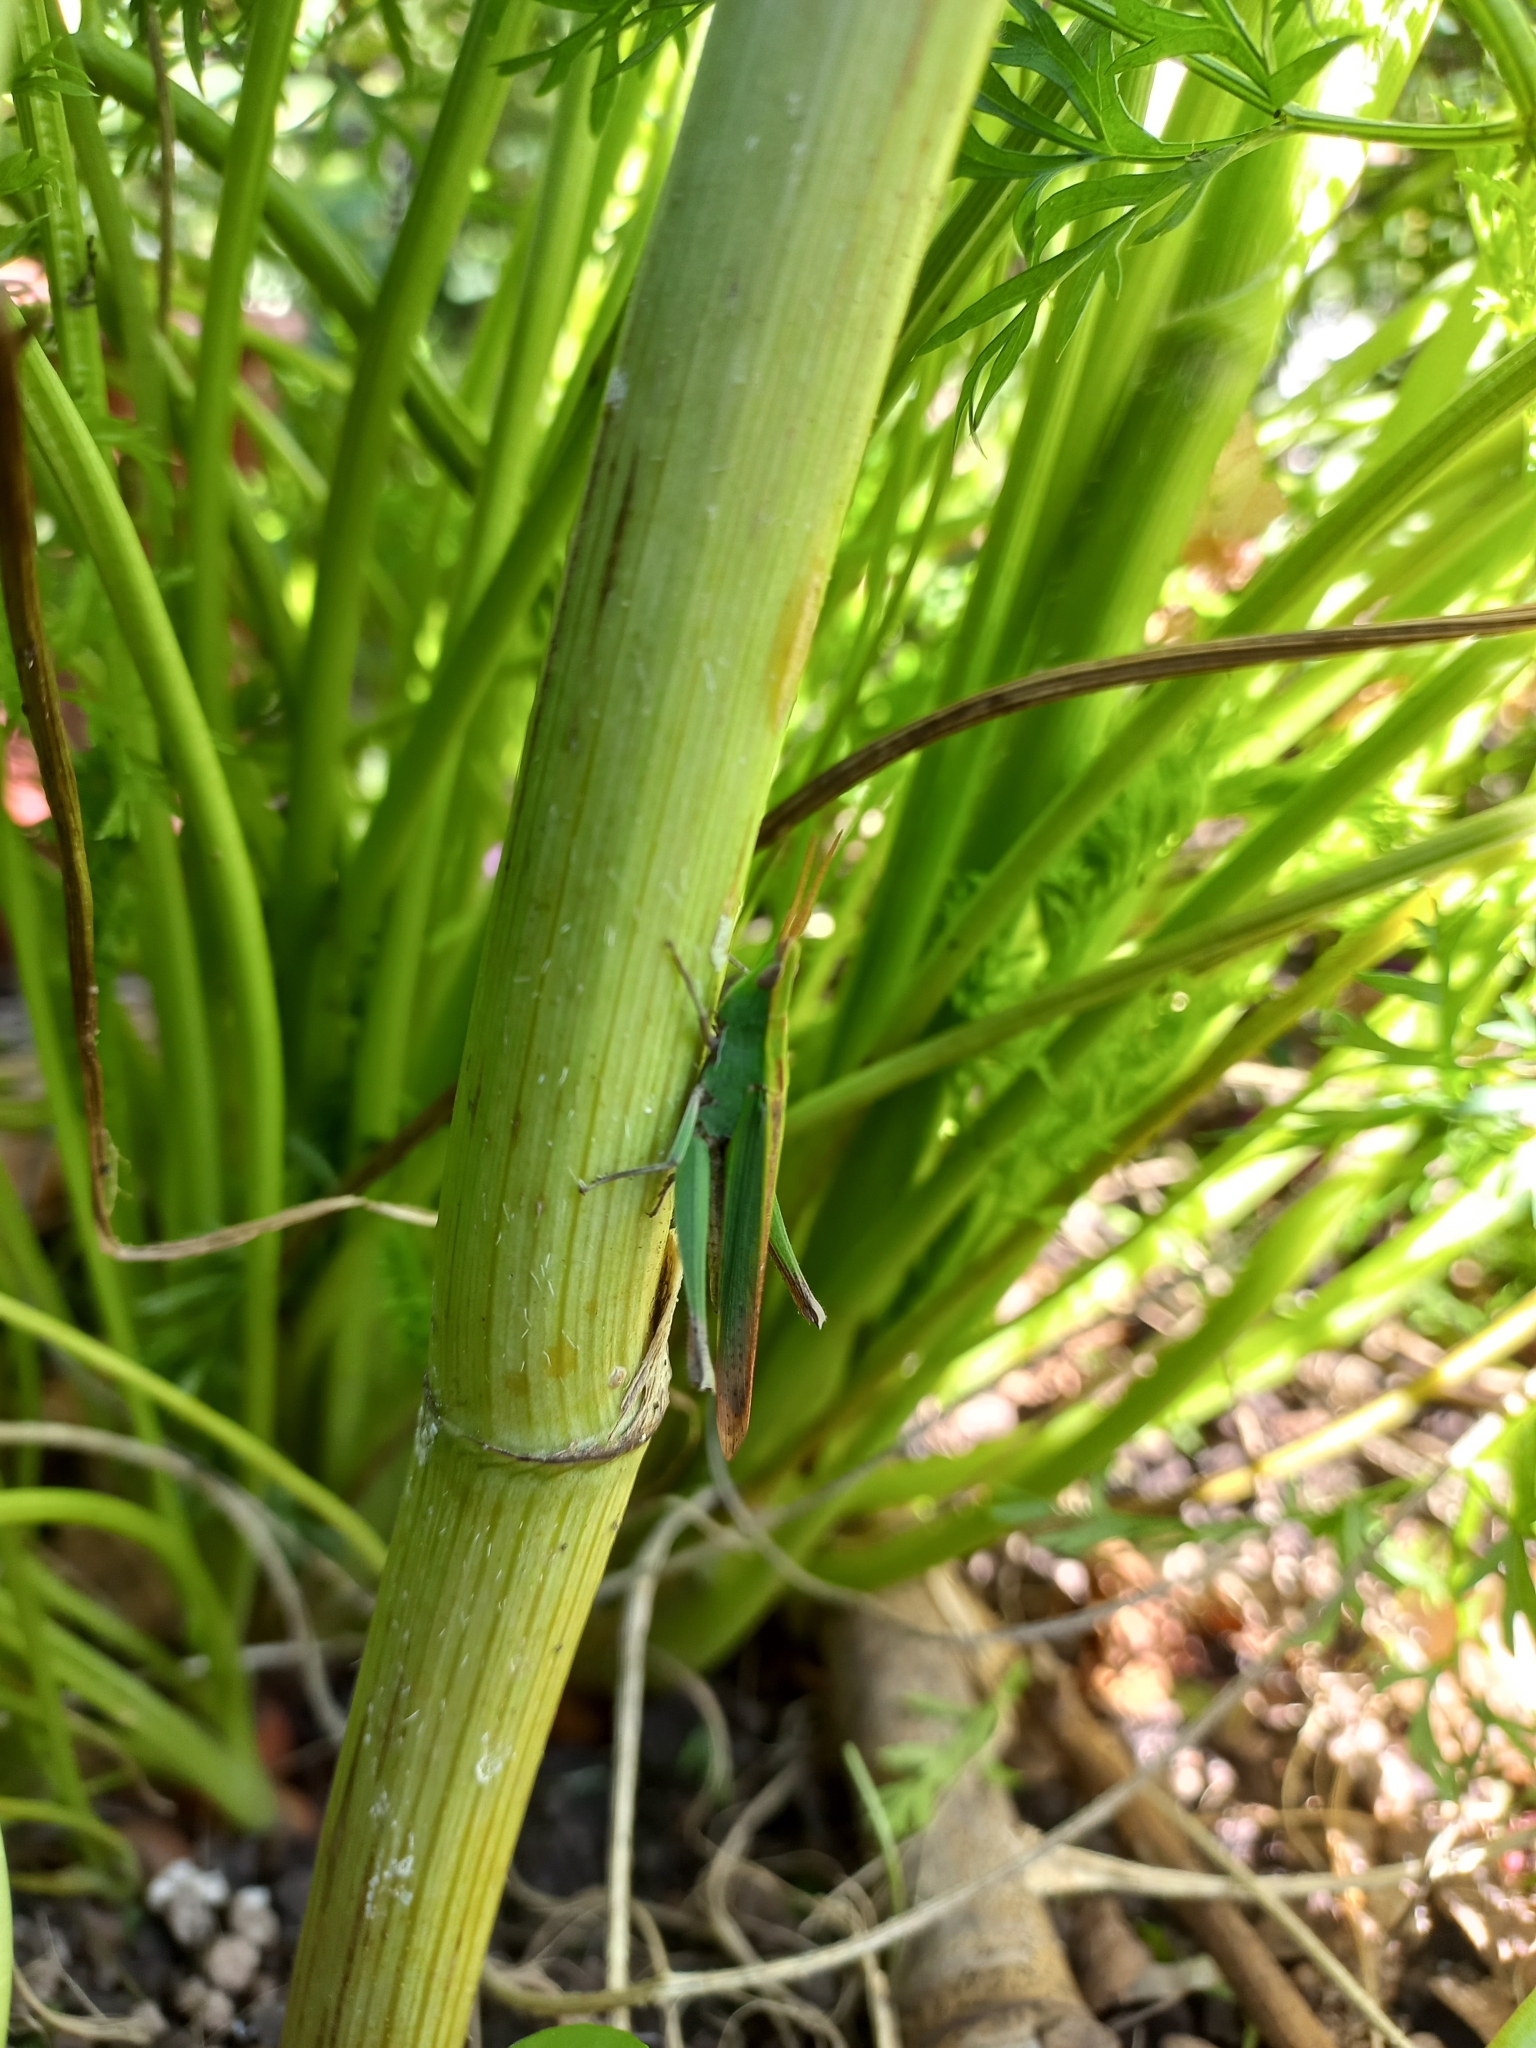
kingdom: Animalia
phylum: Arthropoda
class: Insecta
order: Orthoptera
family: Acrididae
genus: Allotruxalis
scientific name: Allotruxalis gracilis
